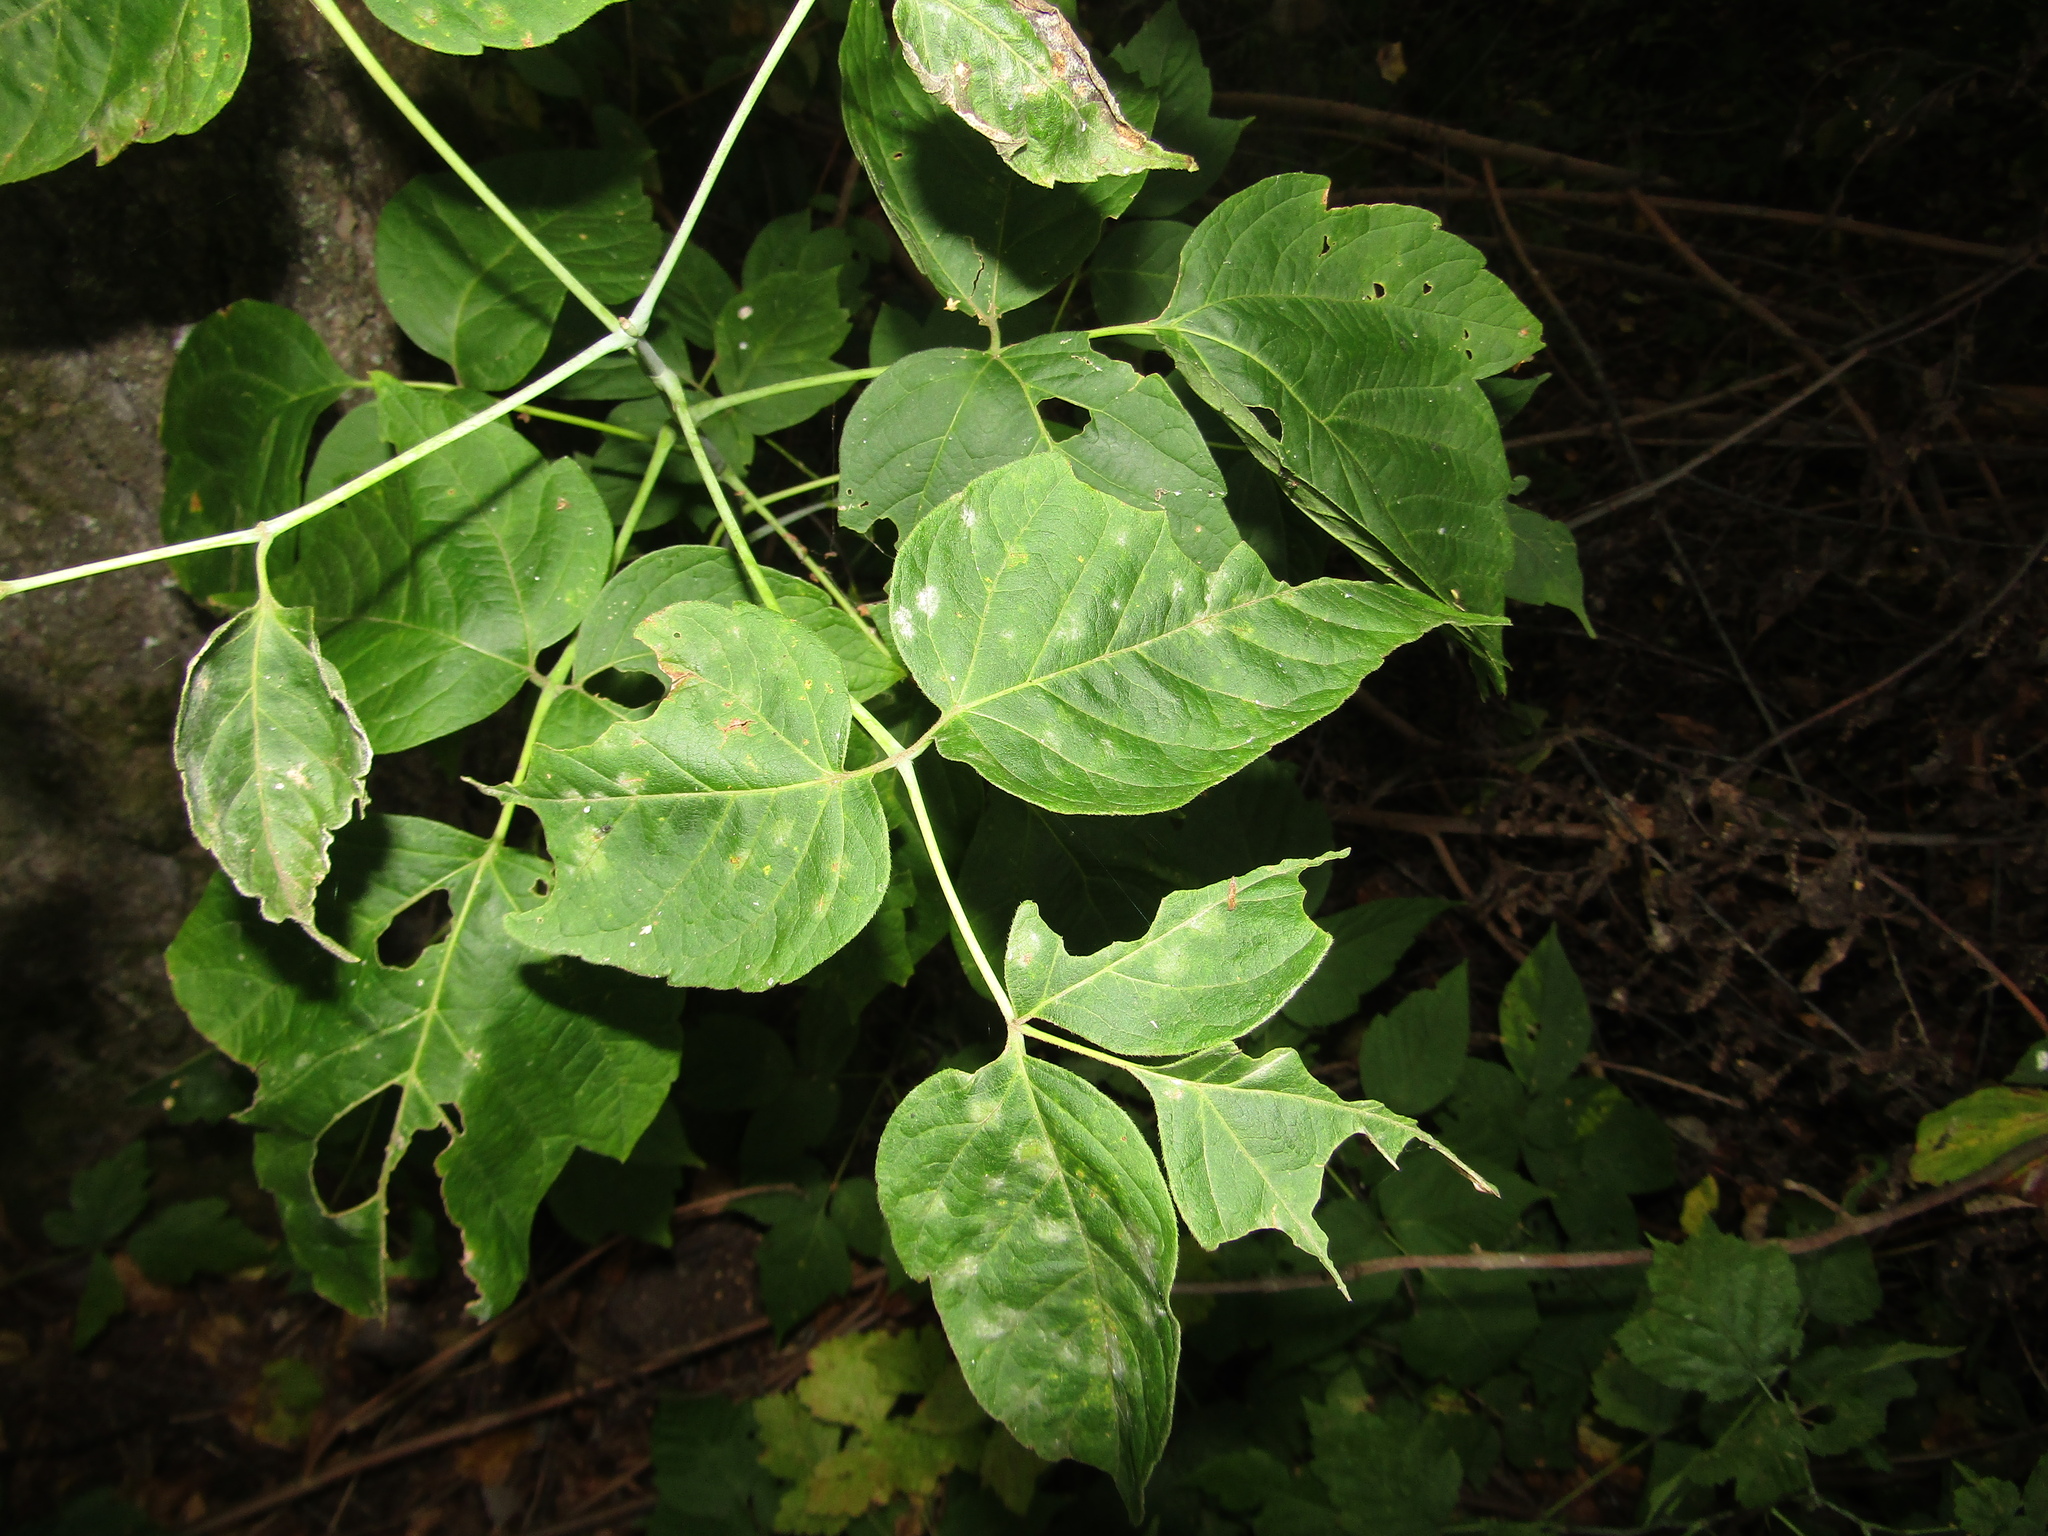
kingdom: Plantae
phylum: Tracheophyta
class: Magnoliopsida
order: Sapindales
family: Sapindaceae
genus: Acer
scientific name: Acer negundo
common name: Ashleaf maple
